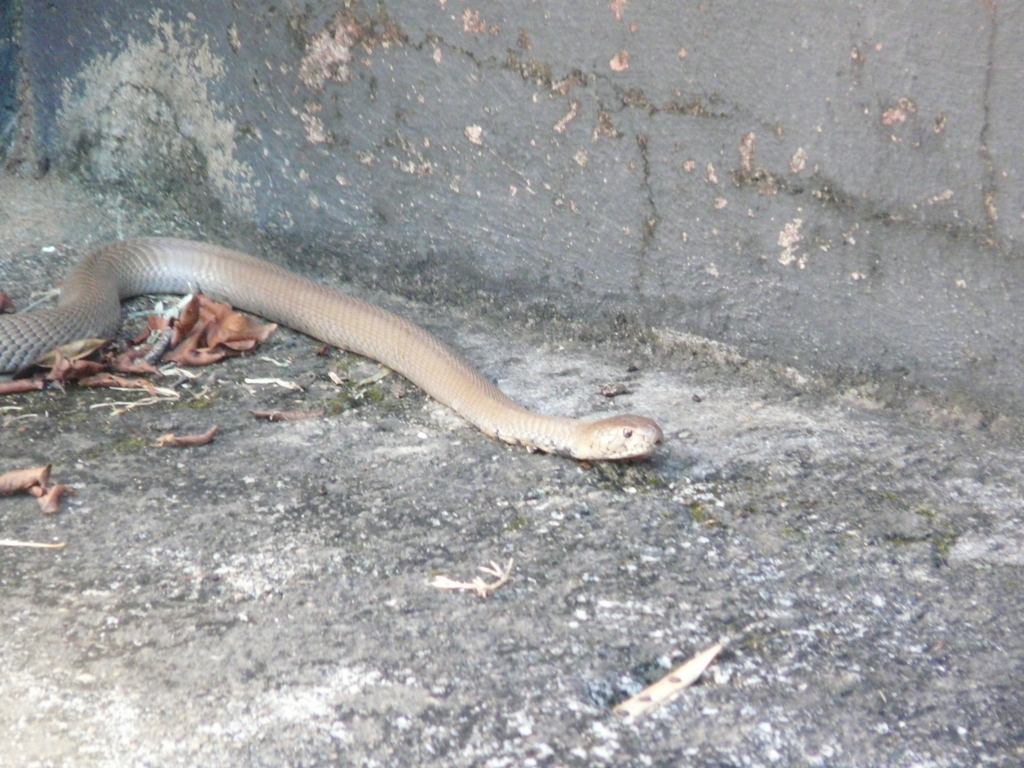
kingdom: Animalia
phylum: Chordata
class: Squamata
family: Elapidae
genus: Naja
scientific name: Naja mossambica
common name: Mozambique spitting cobra
